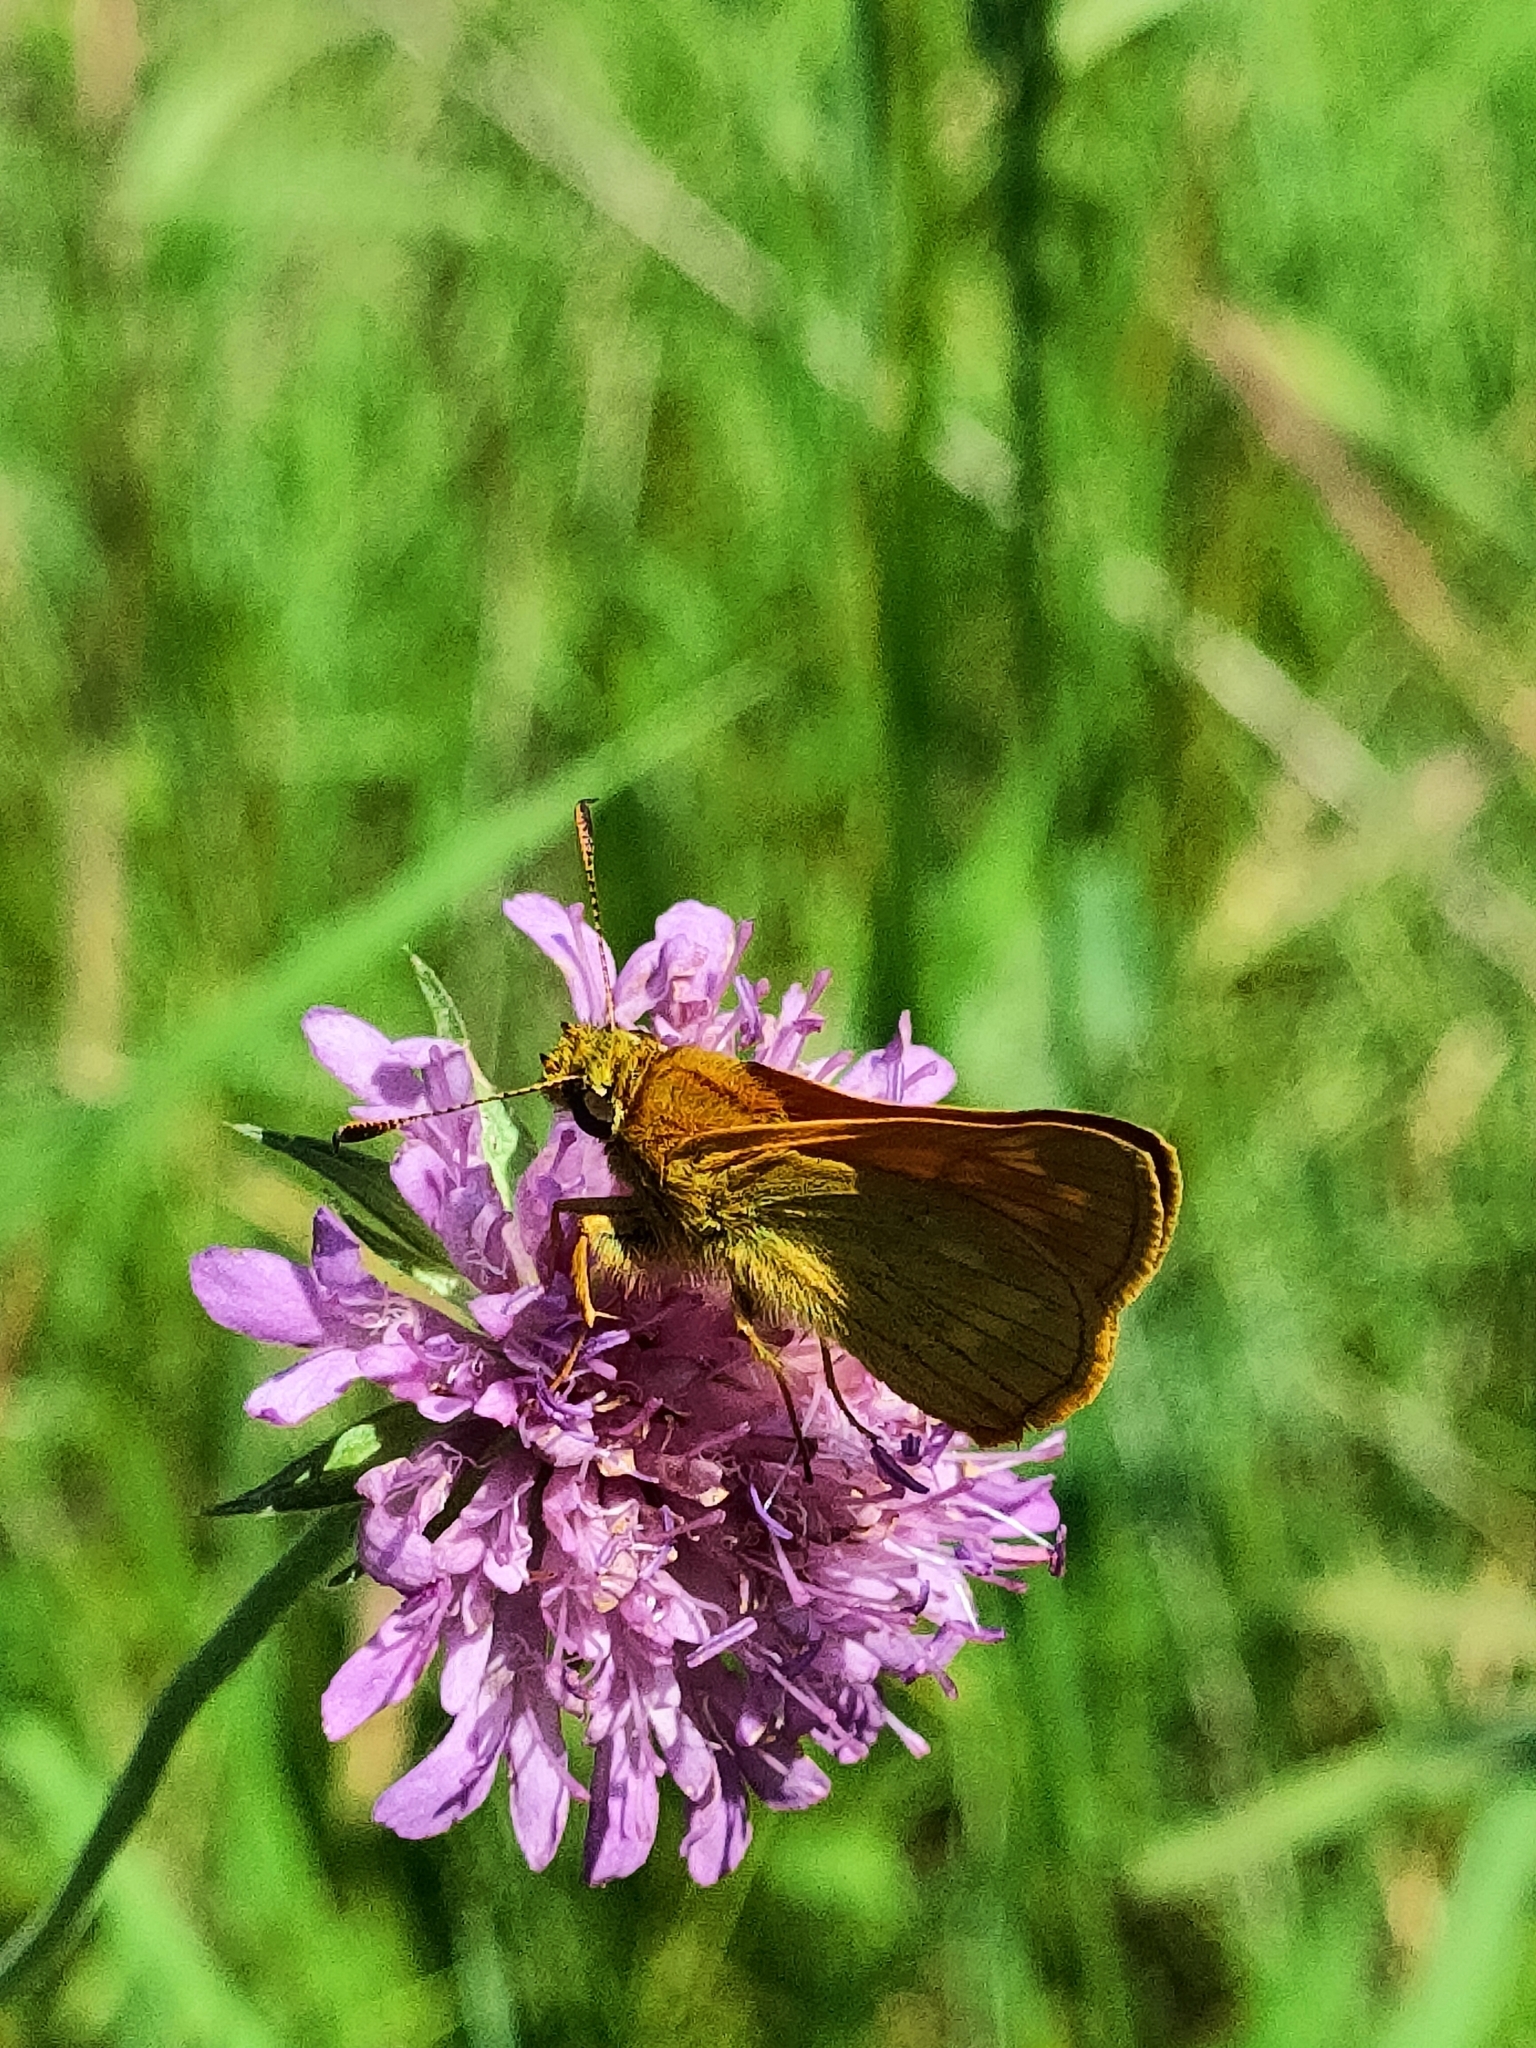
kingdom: Animalia
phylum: Arthropoda
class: Insecta
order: Lepidoptera
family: Hesperiidae
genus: Ochlodes
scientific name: Ochlodes venata
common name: Large skipper
